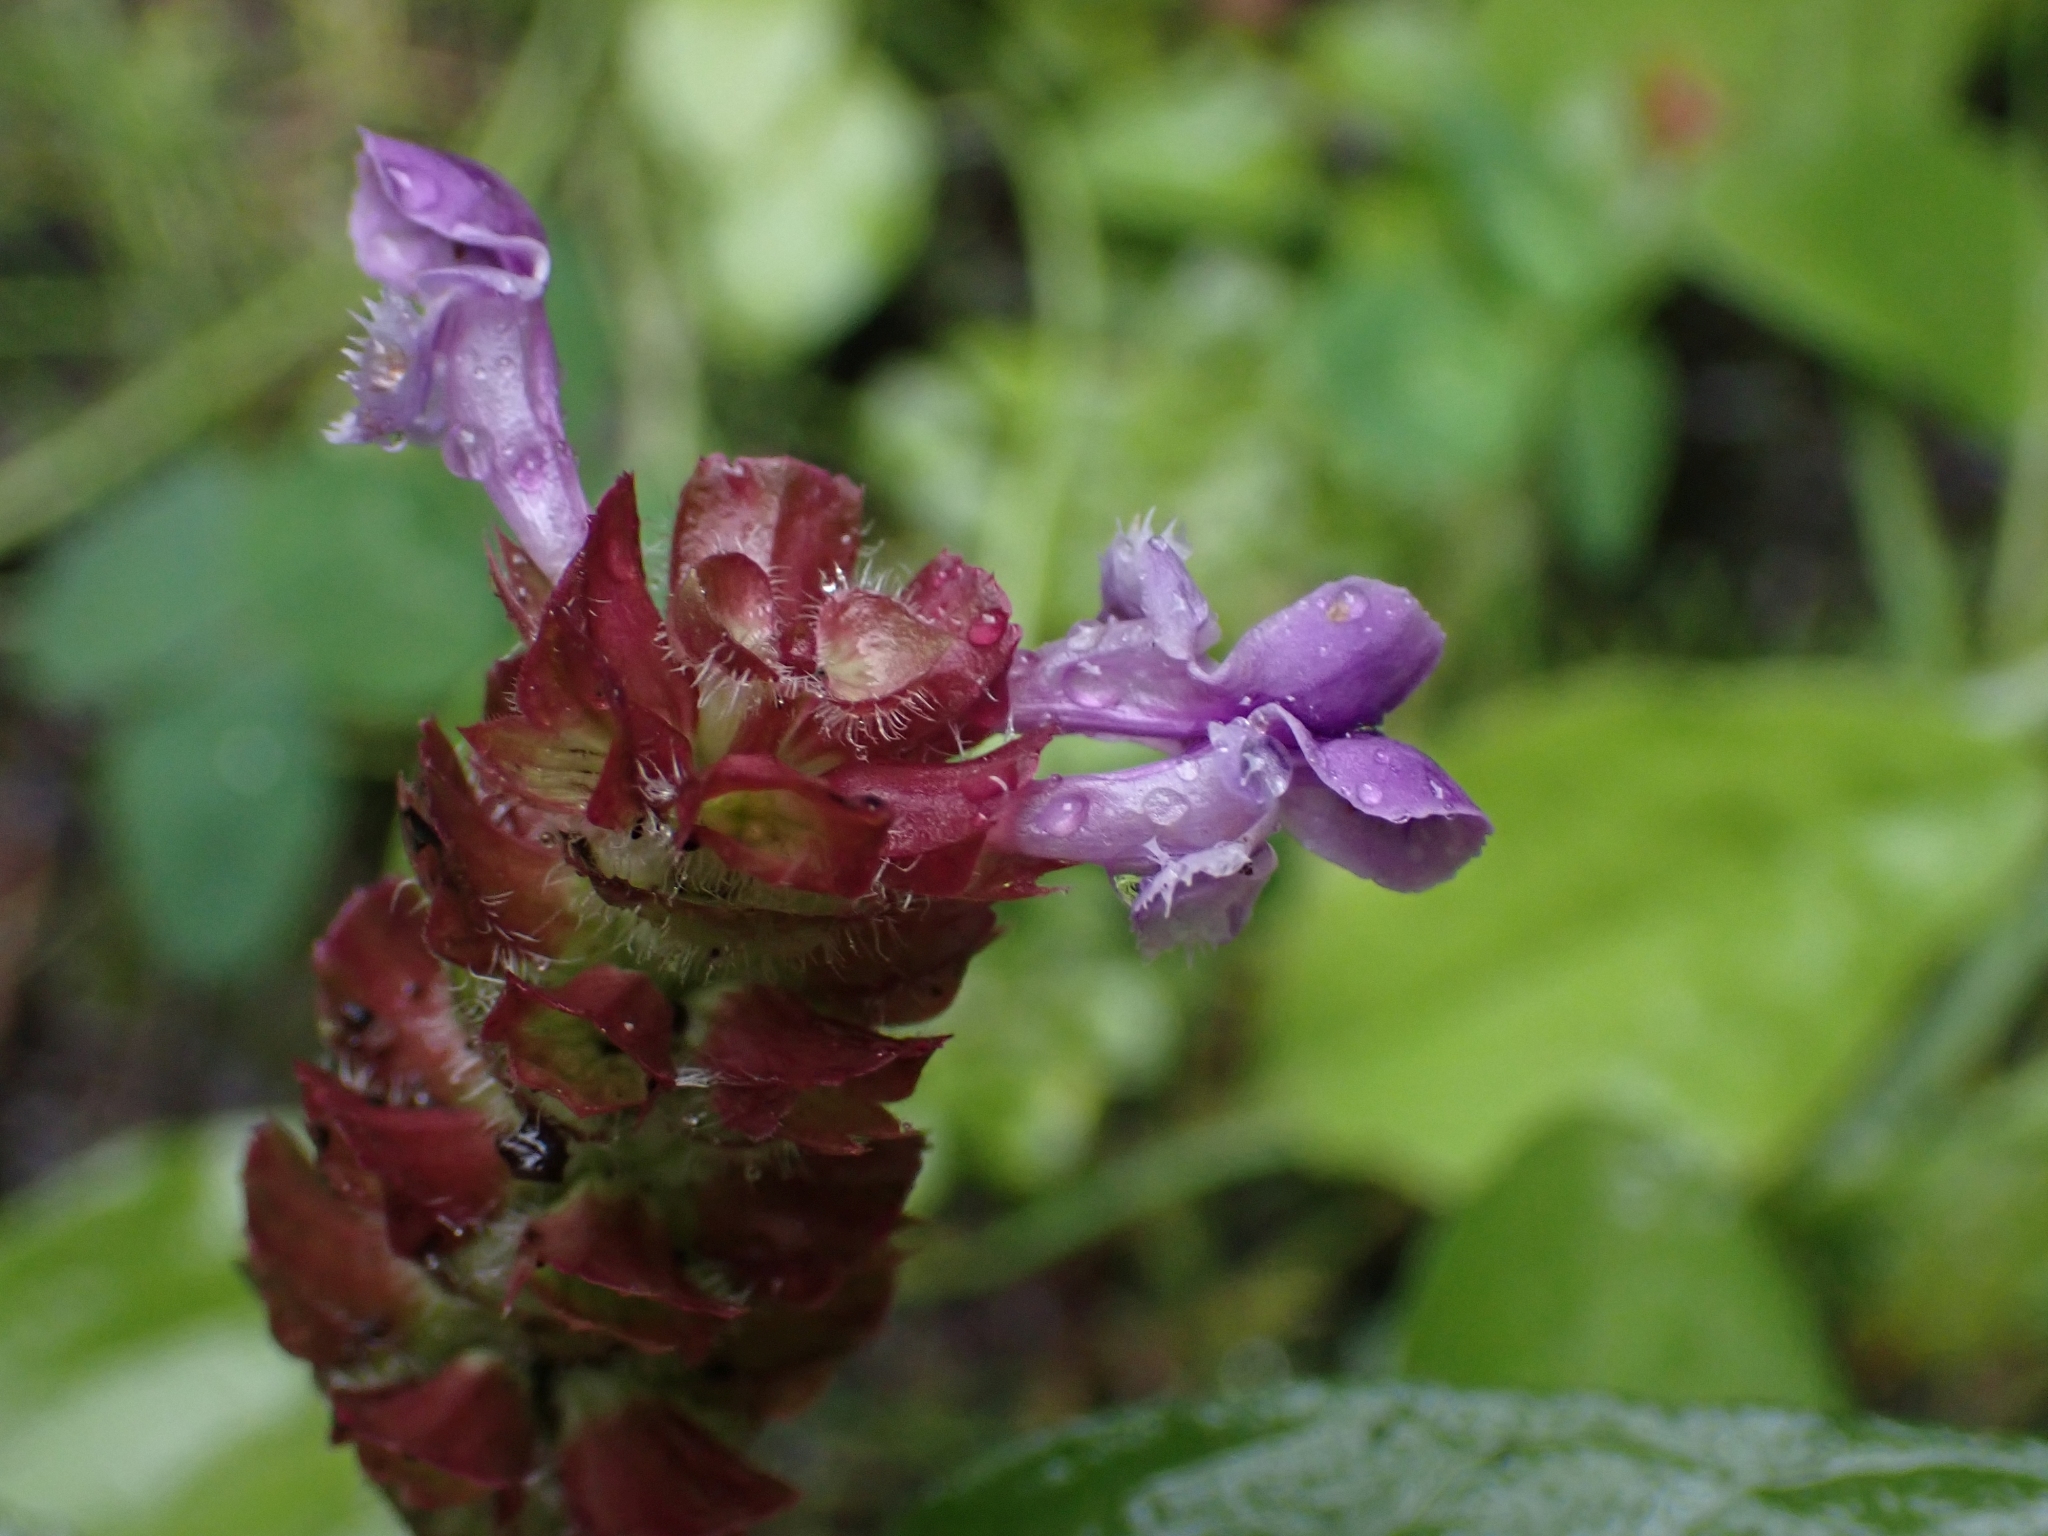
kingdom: Plantae
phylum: Tracheophyta
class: Magnoliopsida
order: Lamiales
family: Lamiaceae
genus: Prunella
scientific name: Prunella vulgaris
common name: Heal-all
